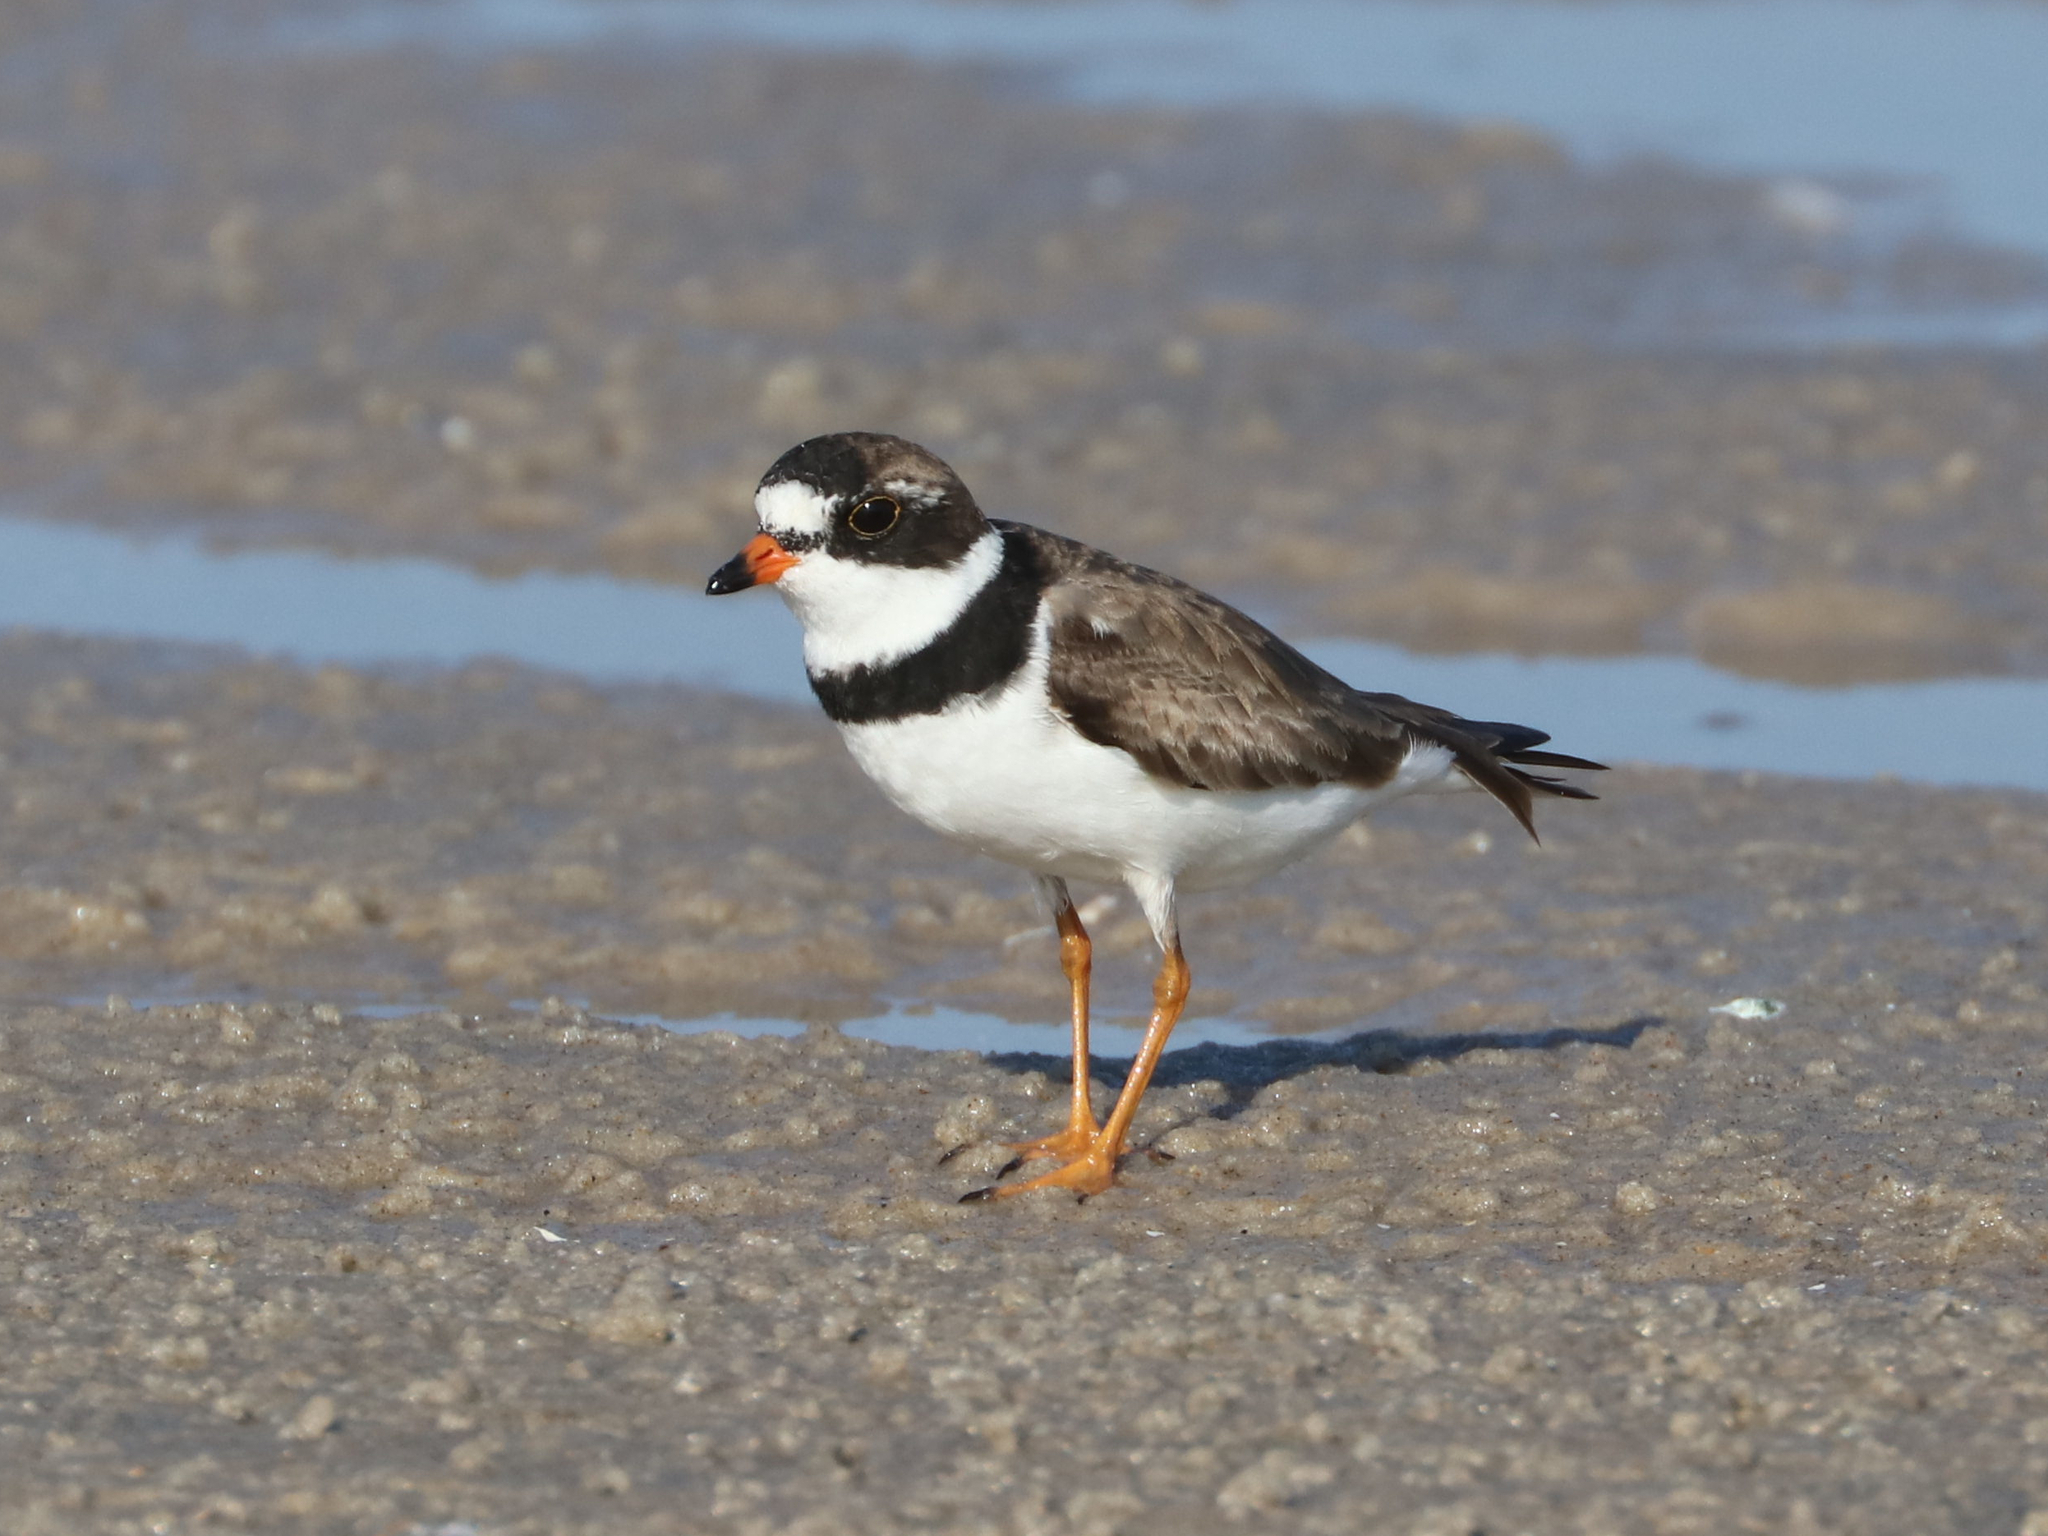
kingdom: Animalia
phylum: Chordata
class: Aves
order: Charadriiformes
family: Charadriidae
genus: Charadrius
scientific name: Charadrius semipalmatus
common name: Semipalmated plover
